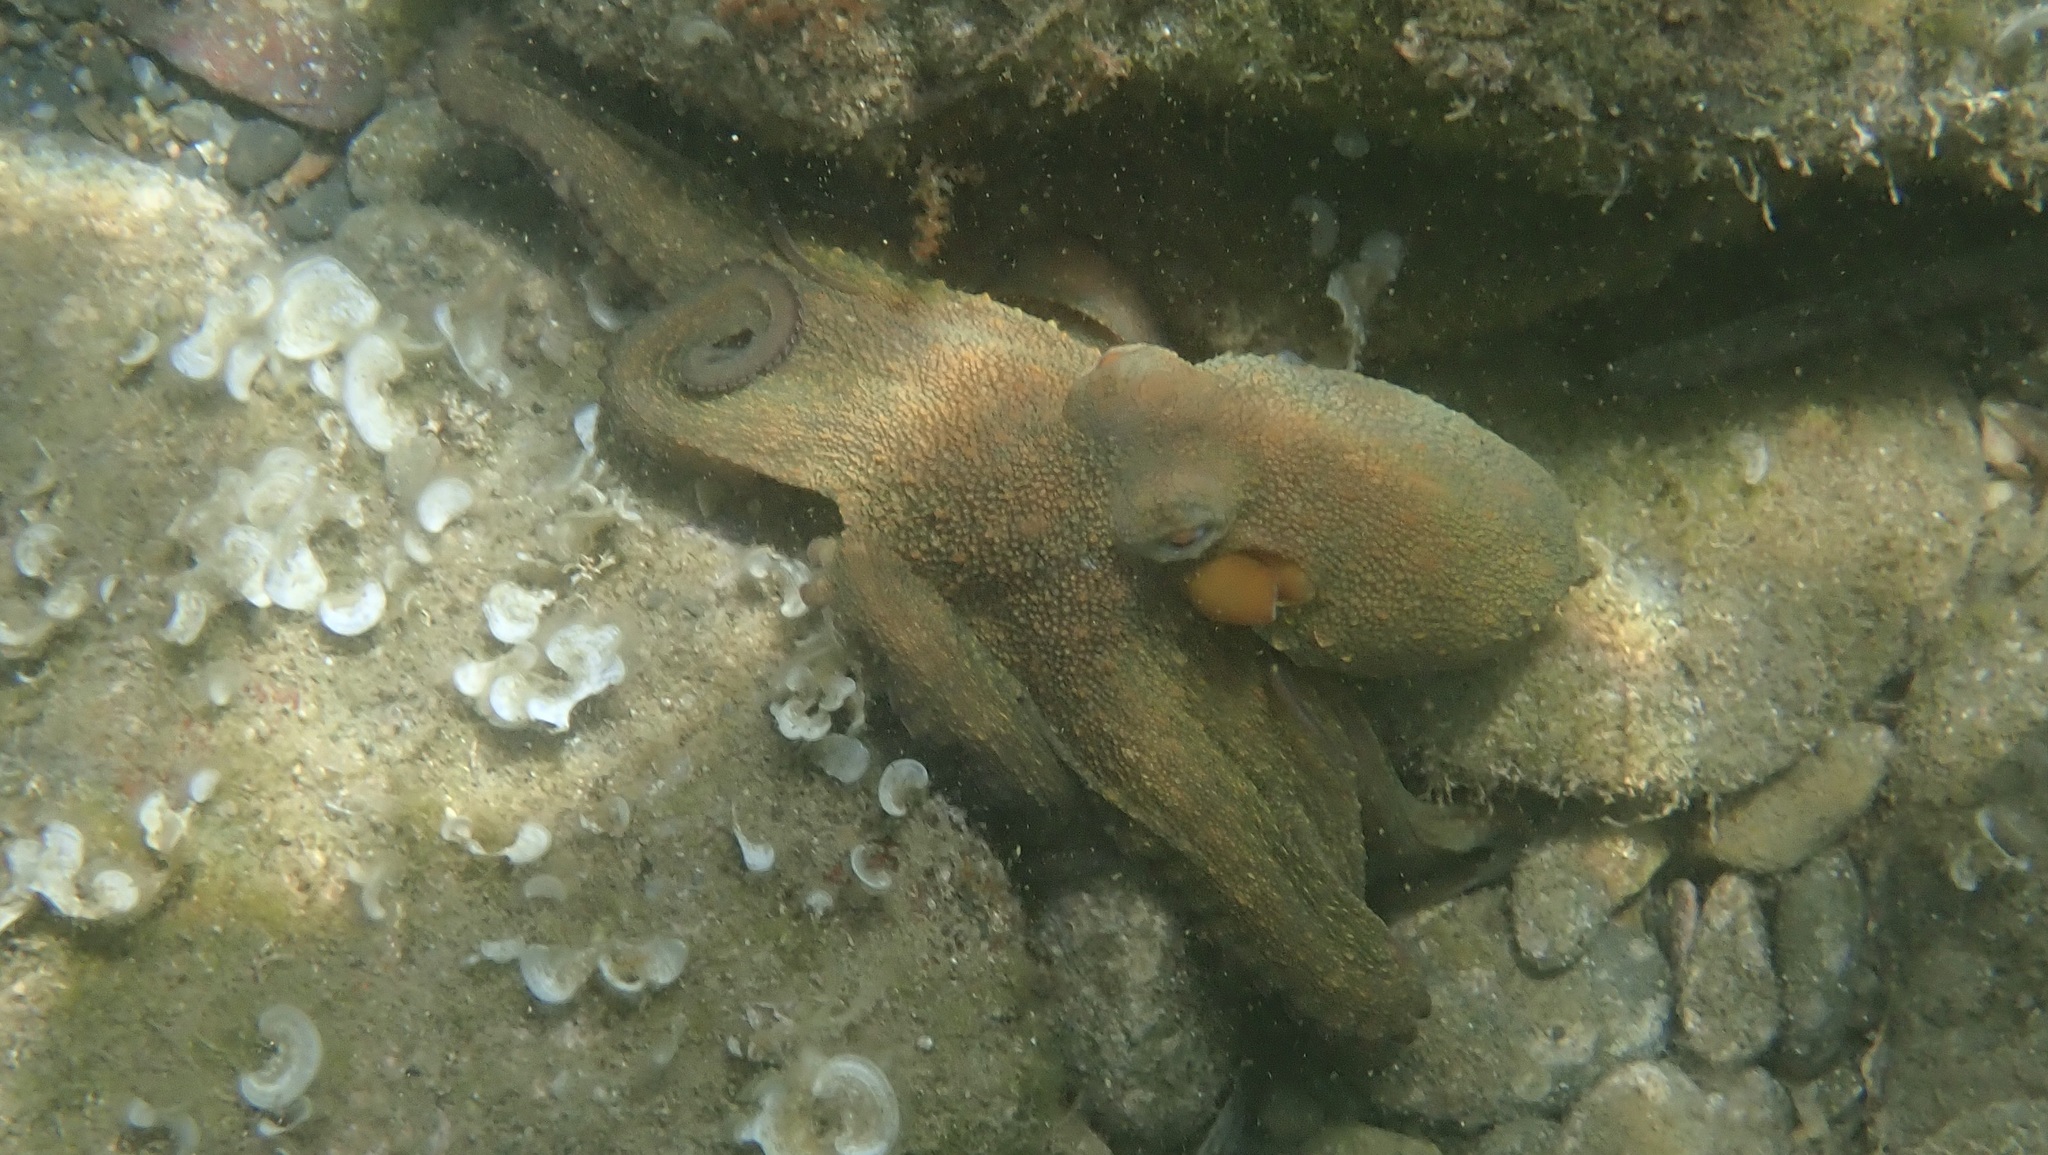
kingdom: Animalia
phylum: Mollusca
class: Cephalopoda
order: Octopoda
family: Octopodidae
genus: Octopus
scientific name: Octopus vulgaris
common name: Common octopus
